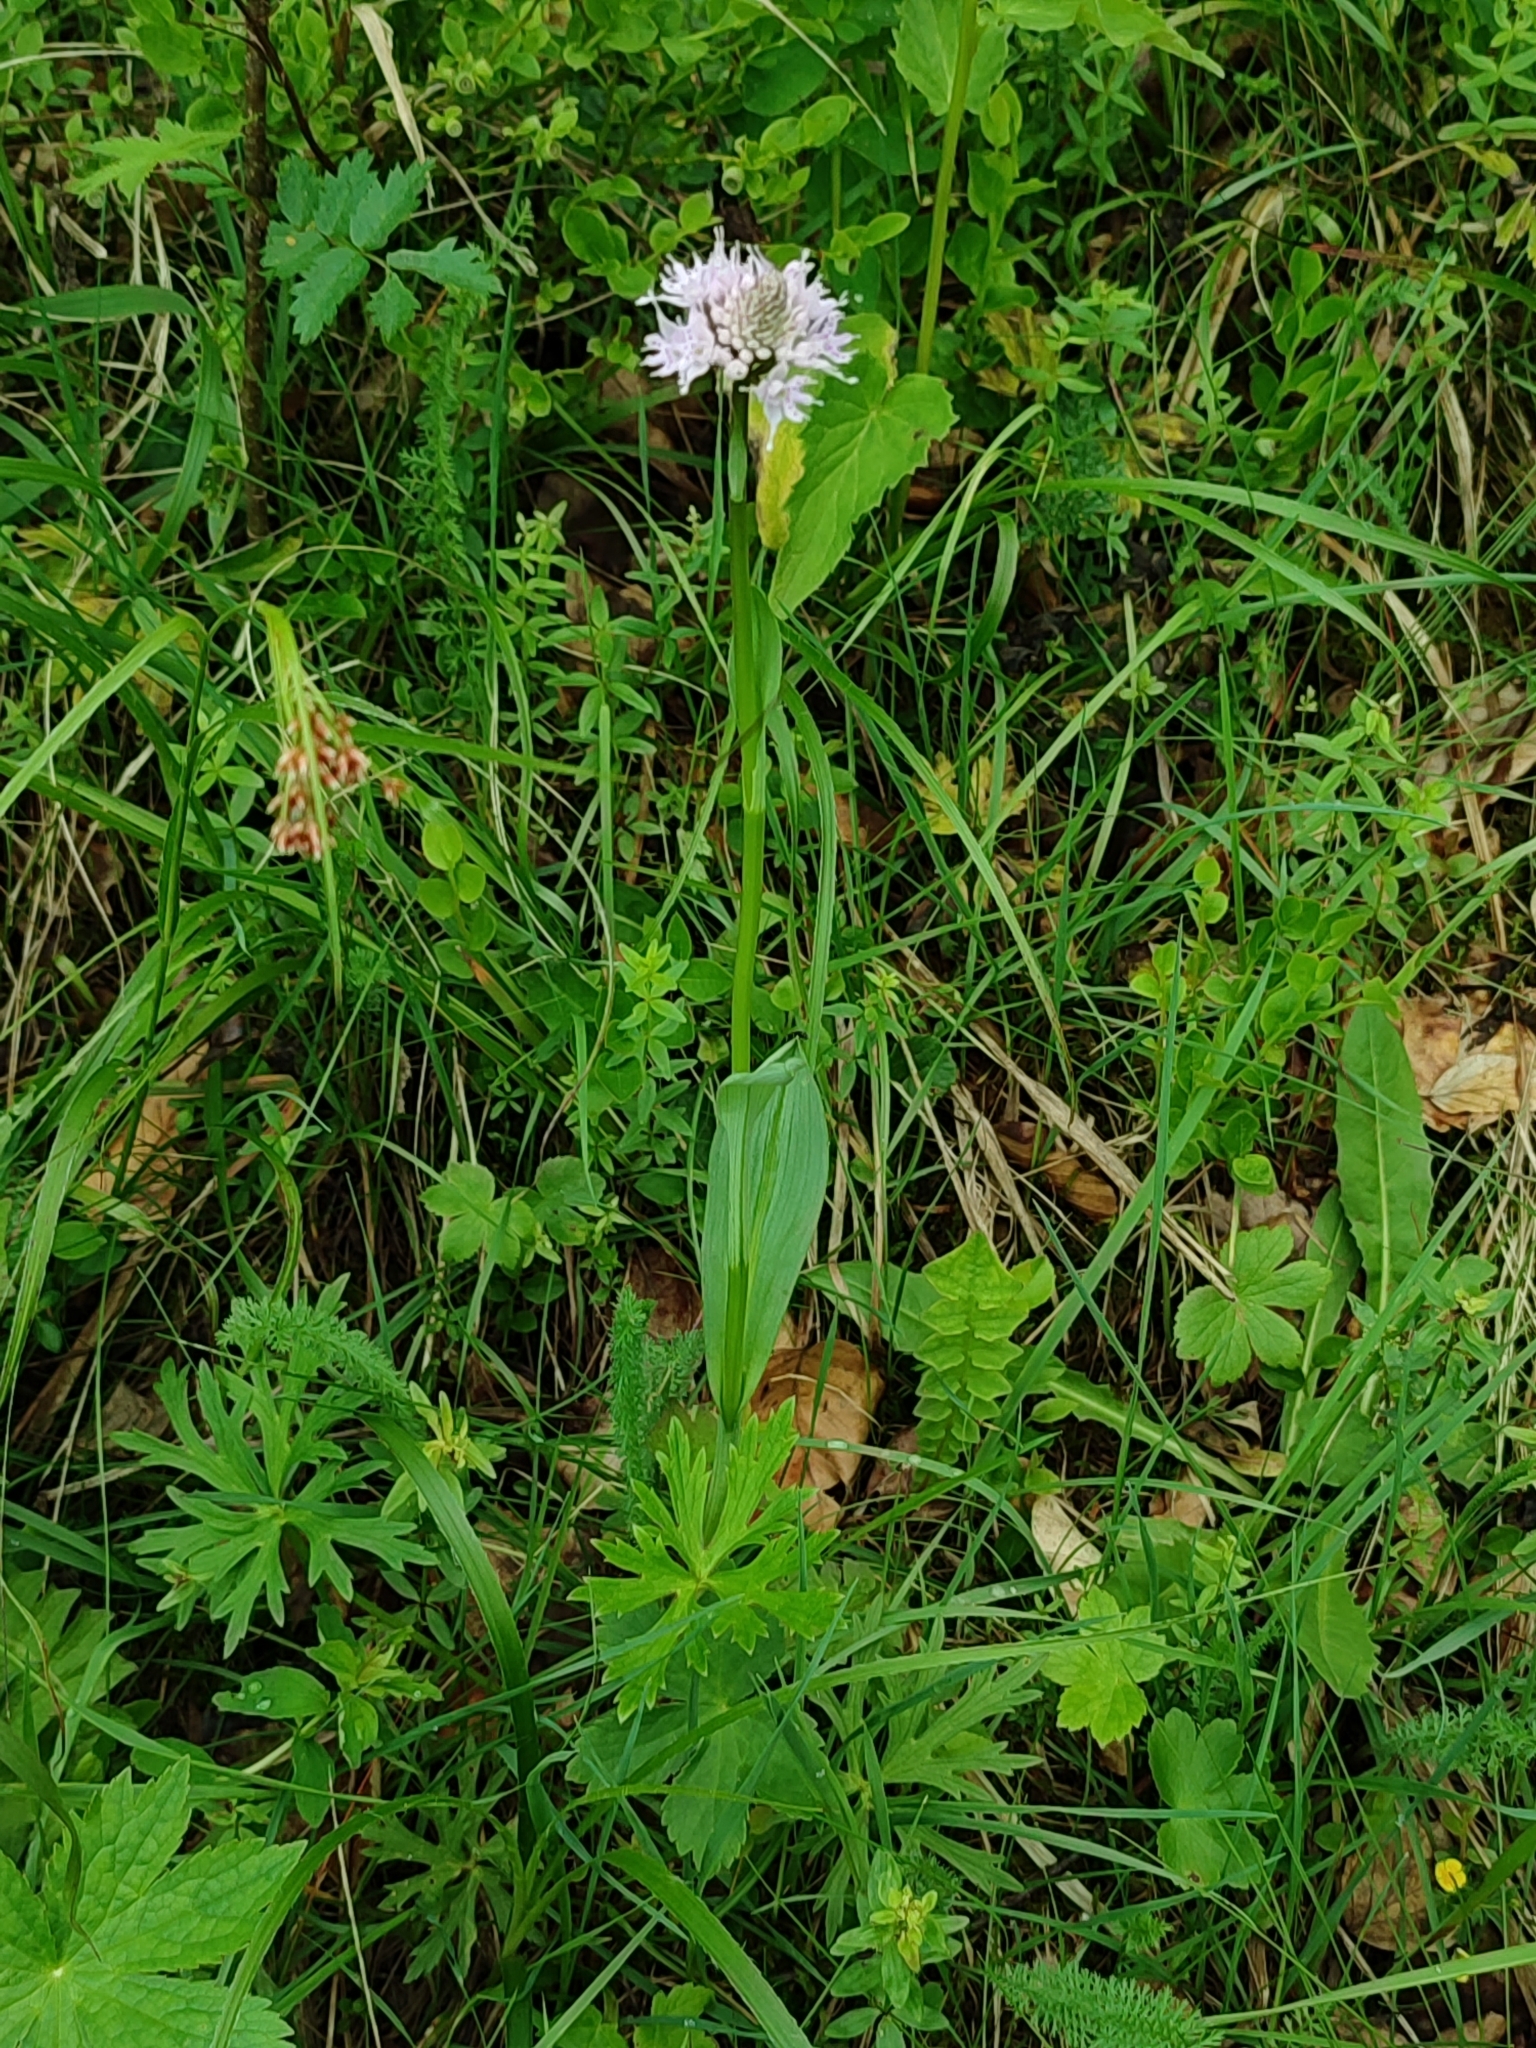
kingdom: Plantae
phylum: Tracheophyta
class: Liliopsida
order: Asparagales
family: Orchidaceae
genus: Traunsteinera
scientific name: Traunsteinera globosa
